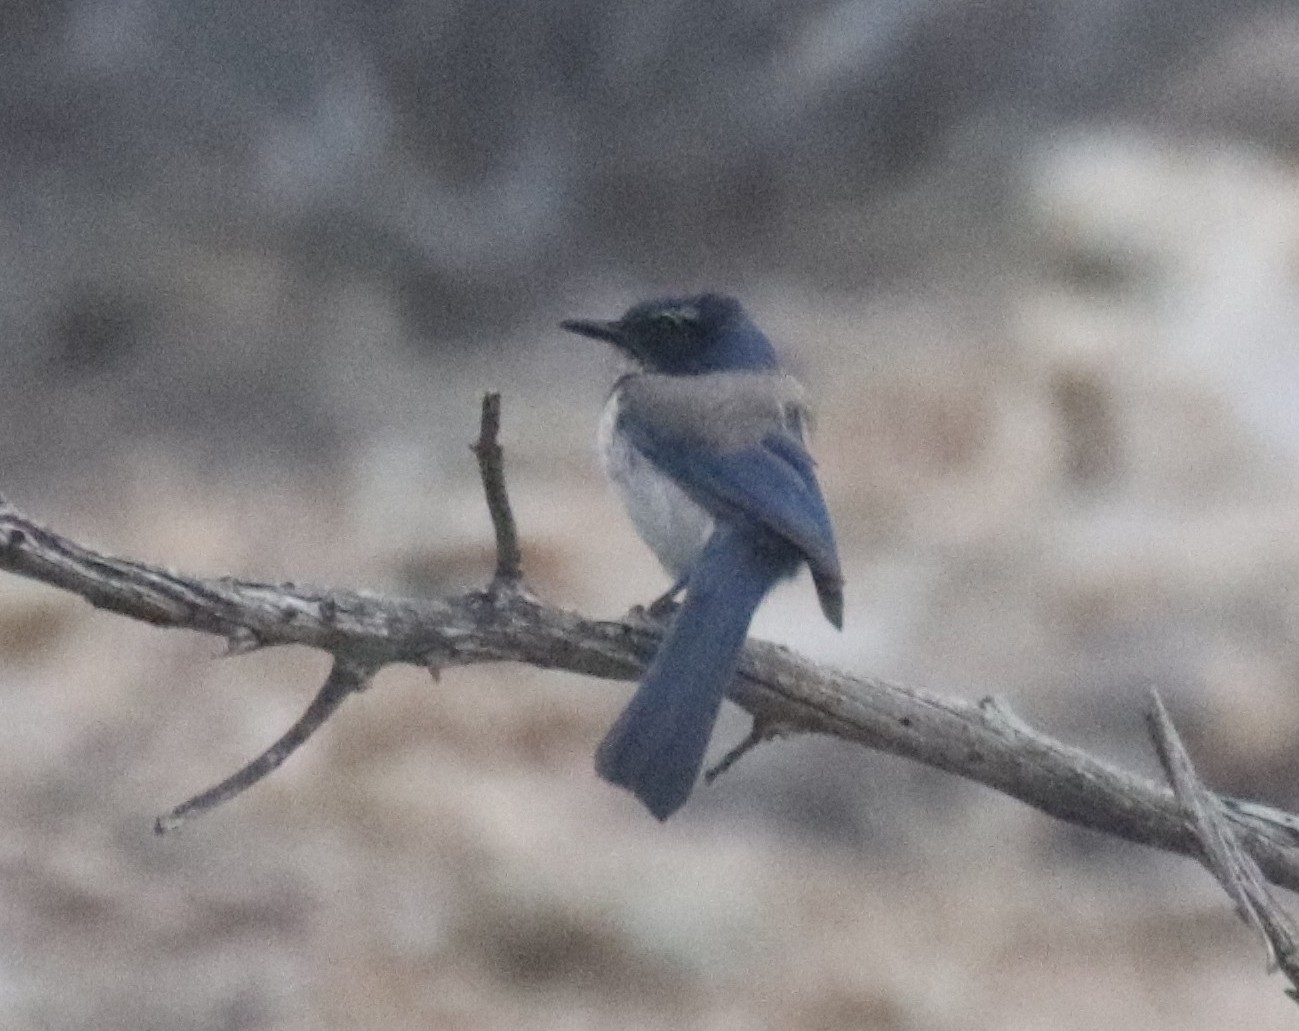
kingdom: Animalia
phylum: Chordata
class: Aves
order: Passeriformes
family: Corvidae
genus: Aphelocoma
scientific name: Aphelocoma californica
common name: California scrub-jay
